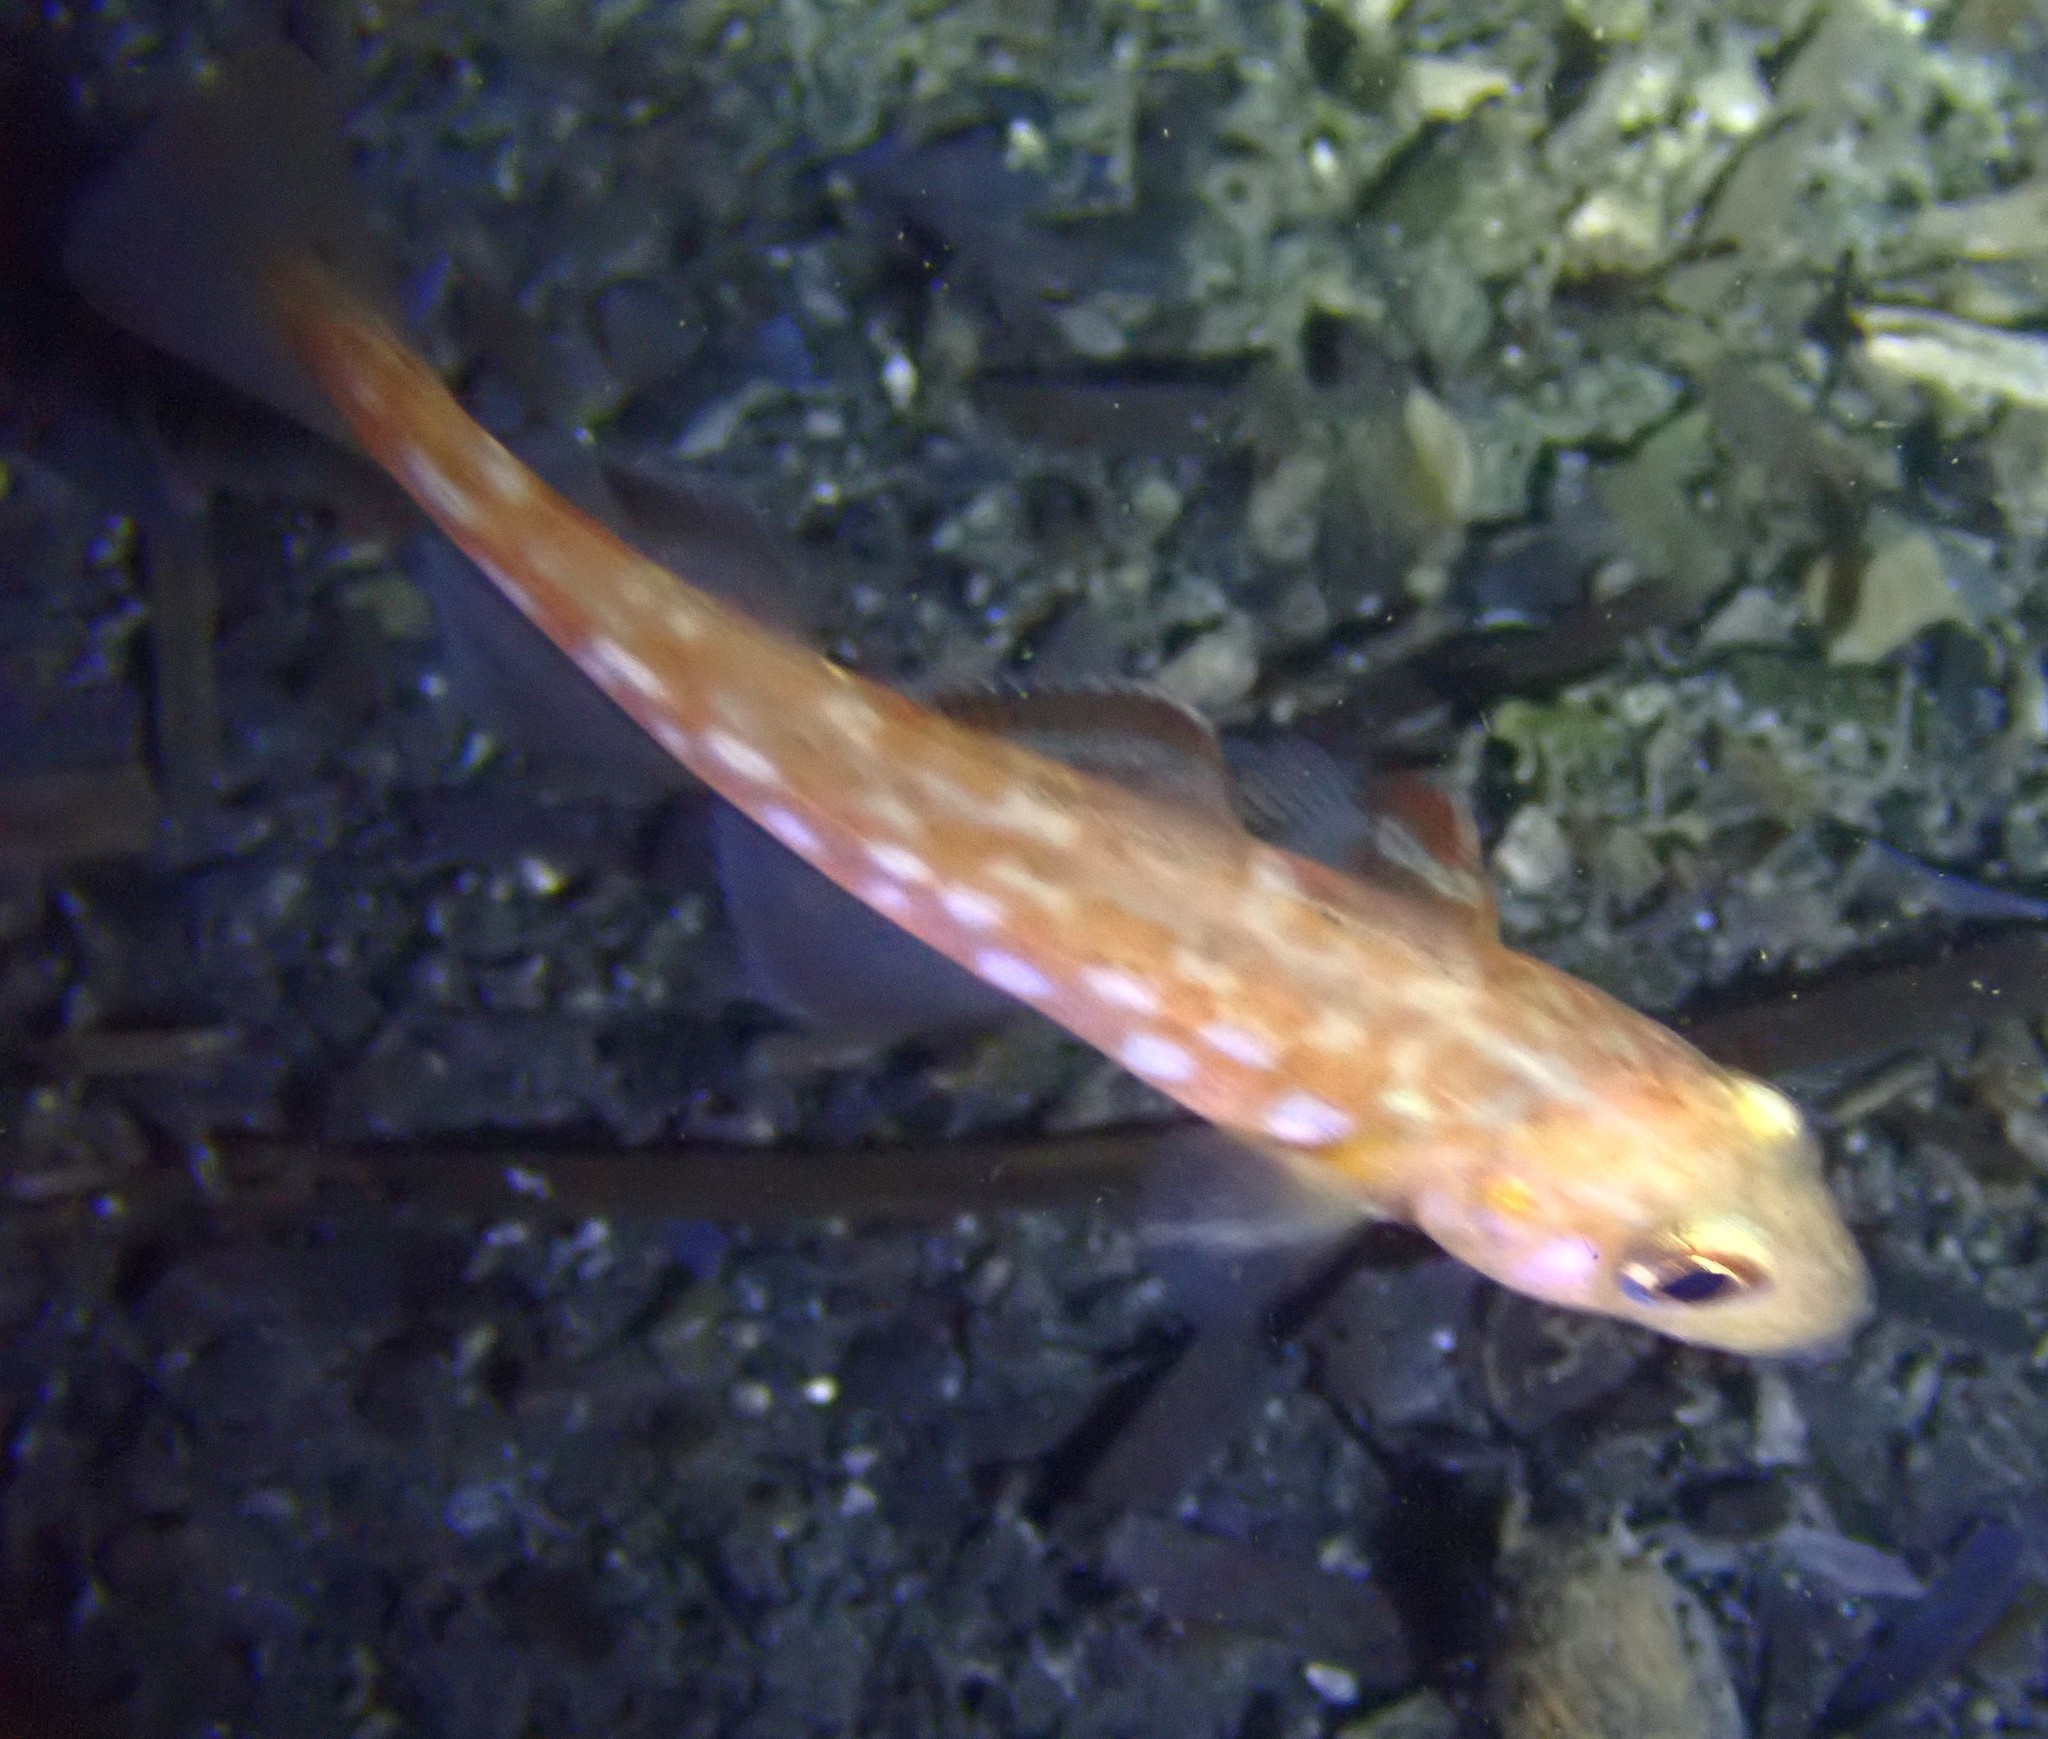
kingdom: Animalia
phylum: Chordata
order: Gadiformes
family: Gadidae
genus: Gadus
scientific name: Gadus morhua
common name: Atlantic cod
